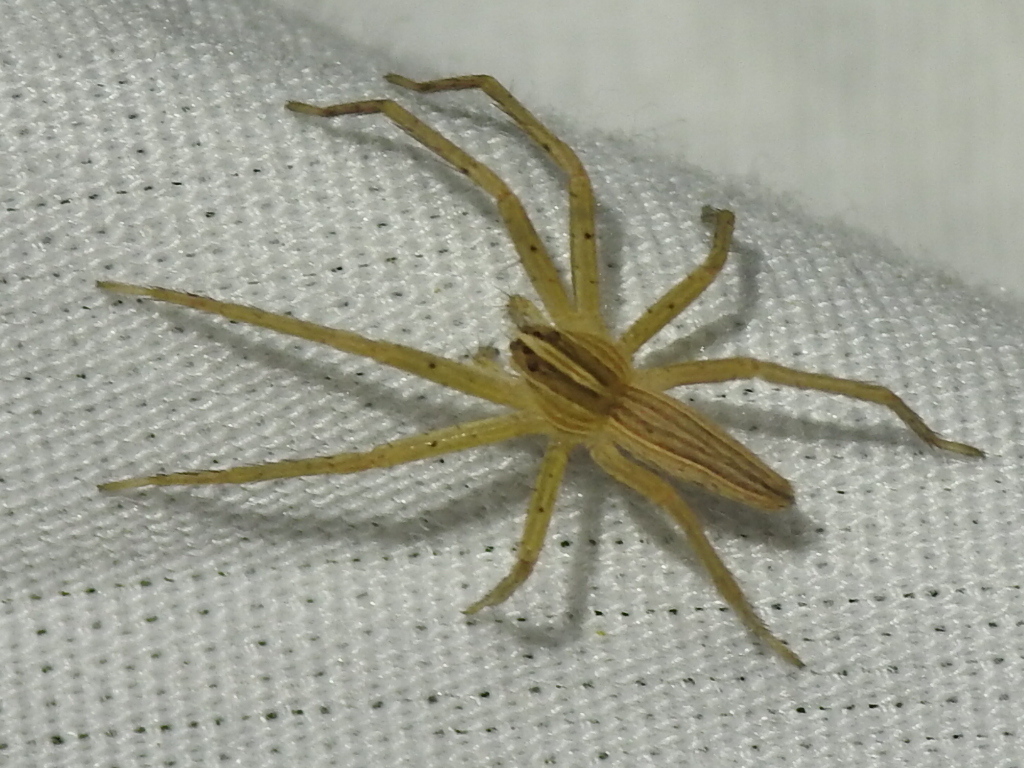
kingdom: Animalia
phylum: Arthropoda
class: Arachnida
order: Araneae
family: Pisauridae
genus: Pisaurina
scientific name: Pisaurina dubia
